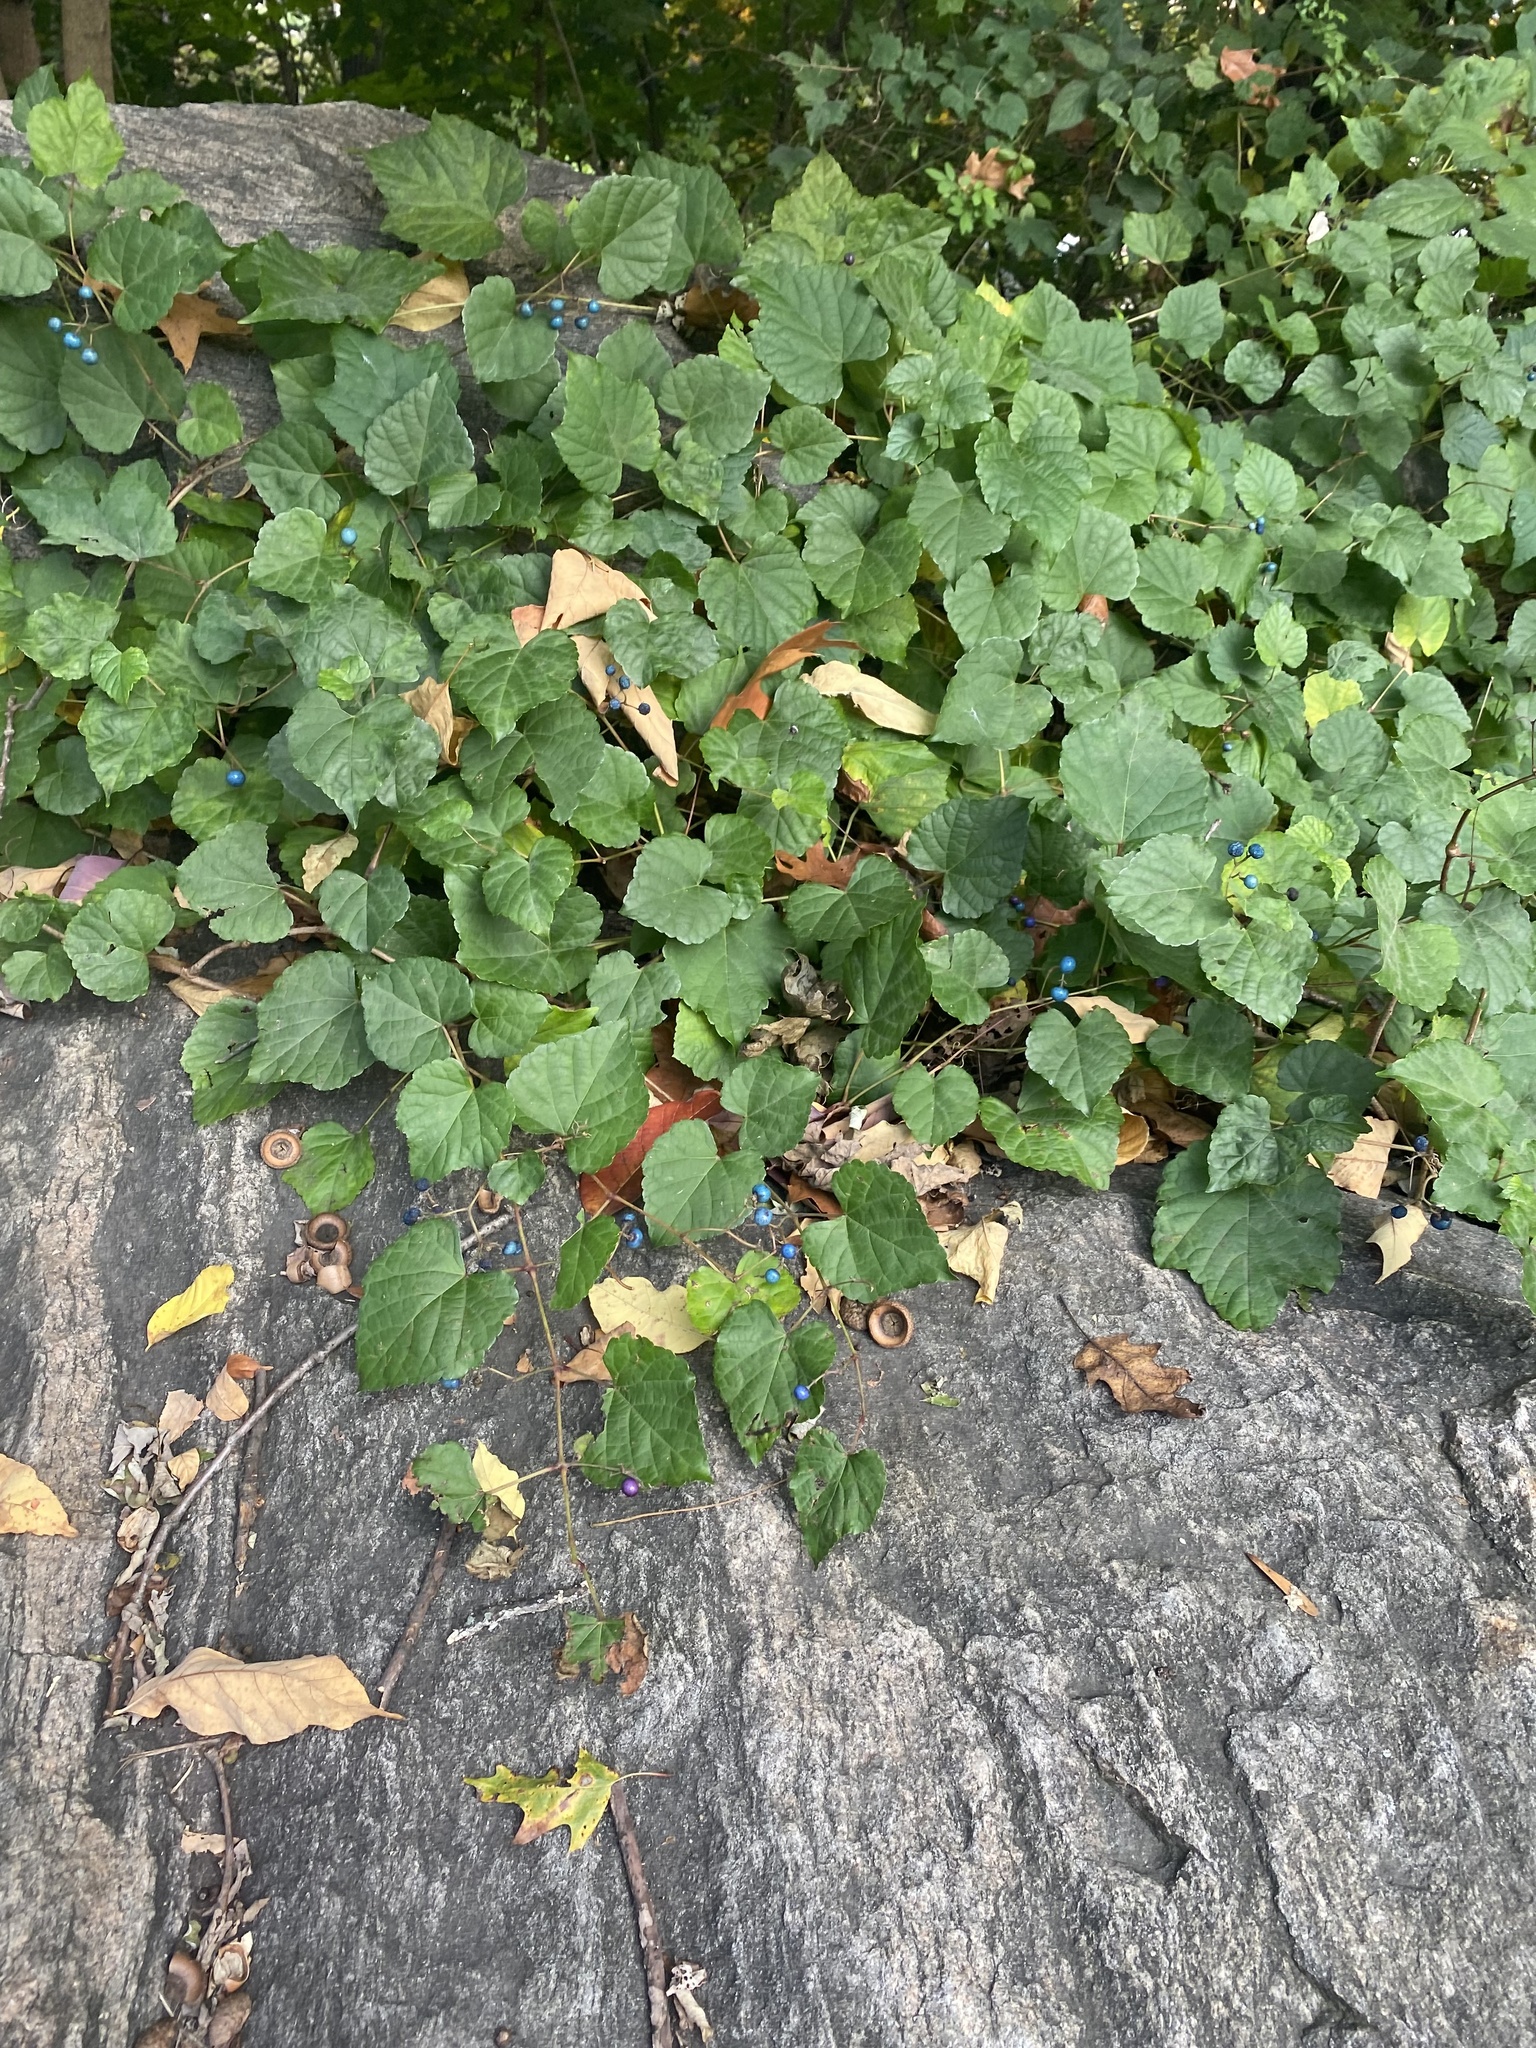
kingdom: Plantae
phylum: Tracheophyta
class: Magnoliopsida
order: Vitales
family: Vitaceae
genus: Ampelopsis
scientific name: Ampelopsis glandulosa
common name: Amur peppervine
